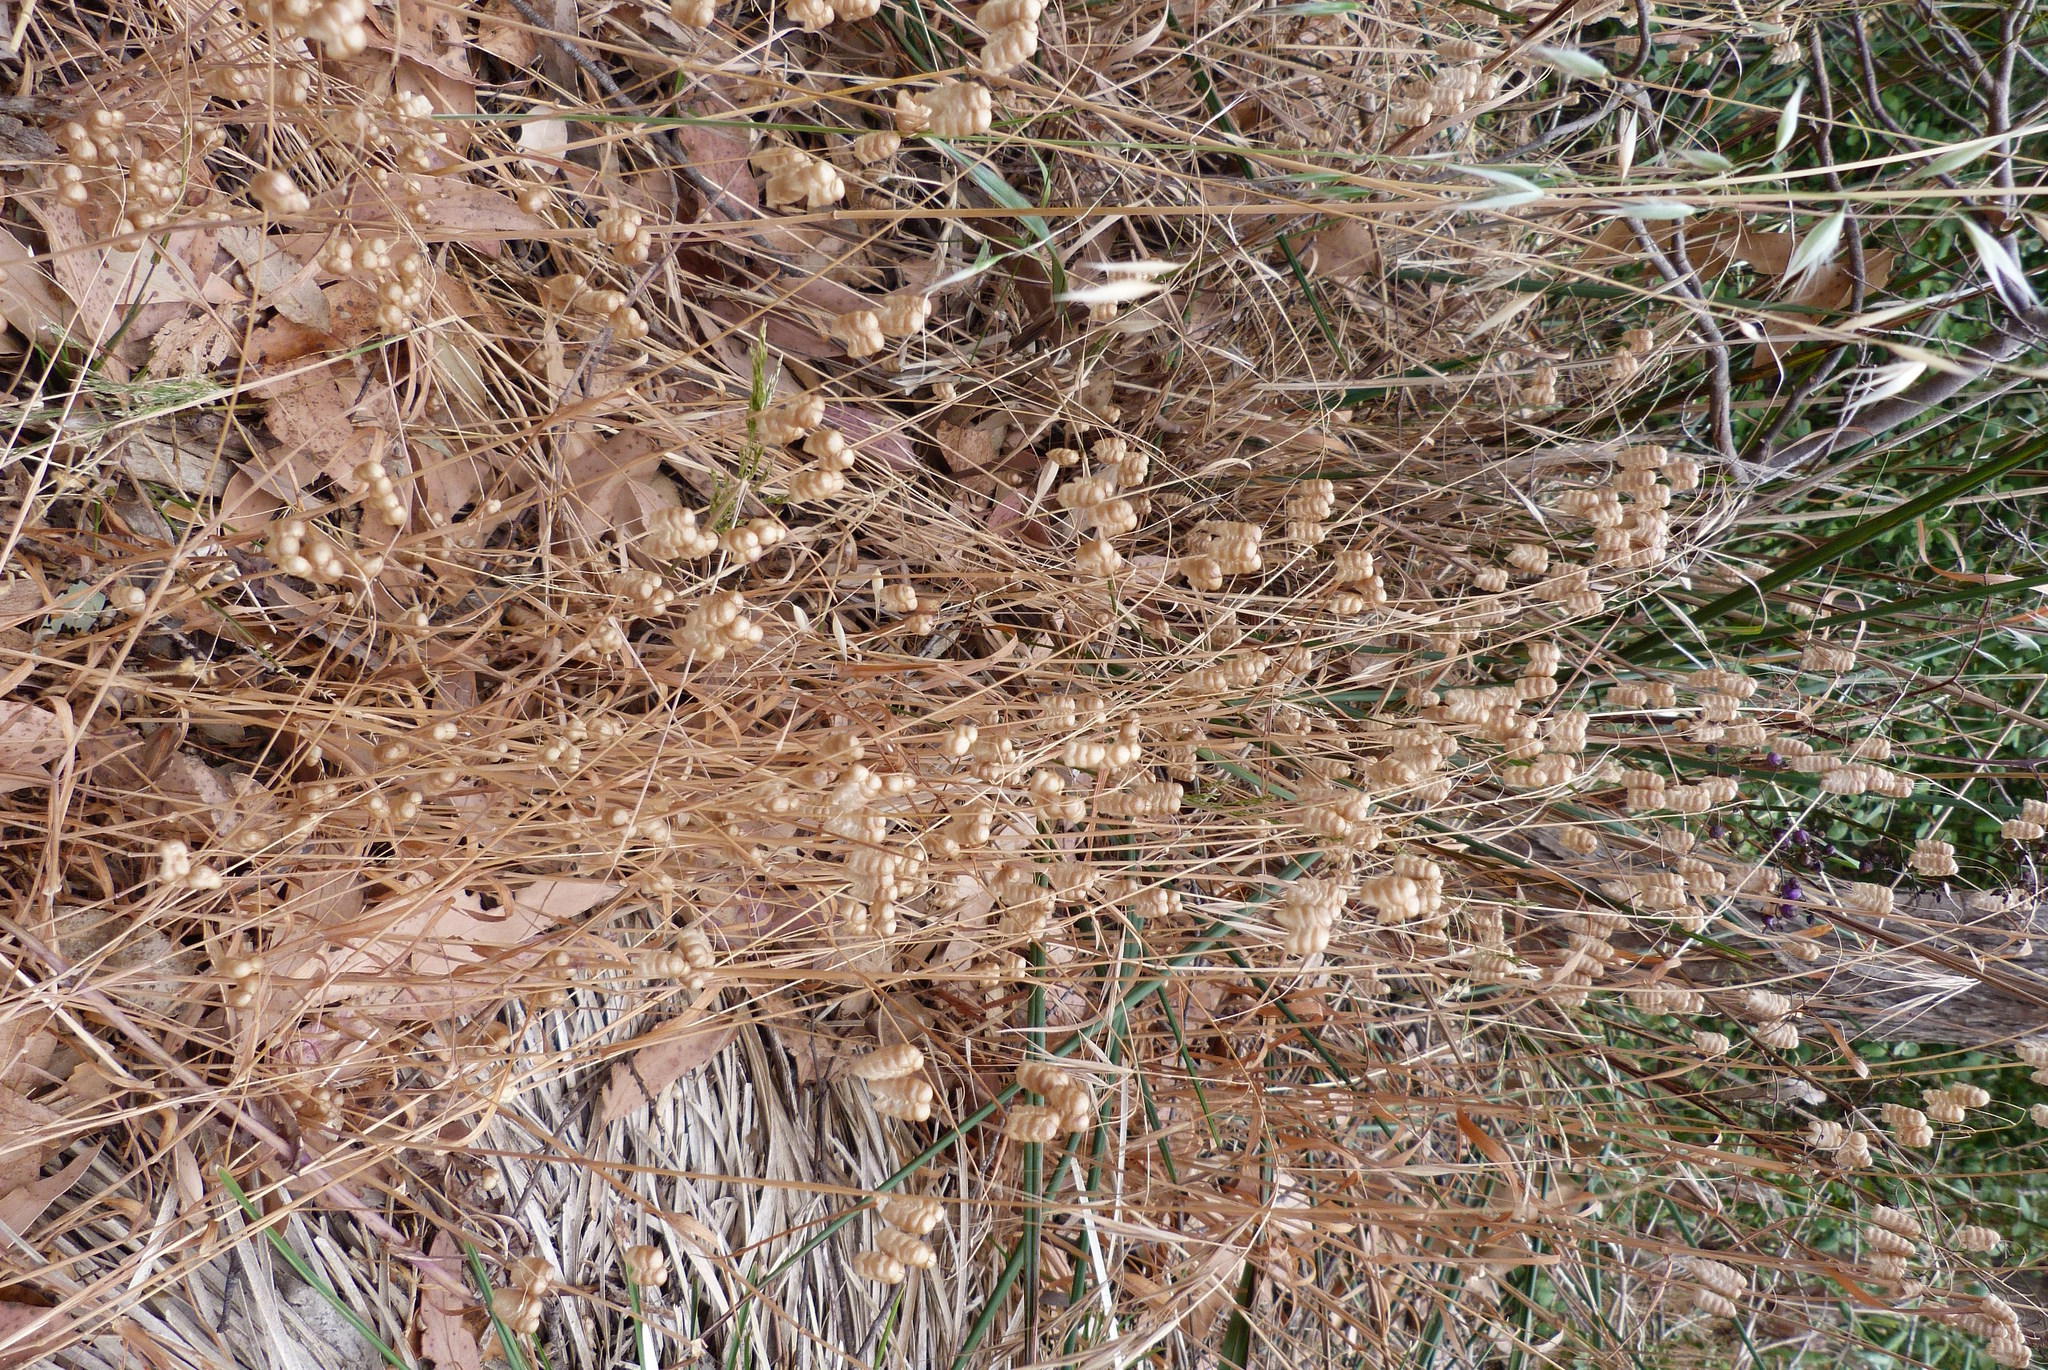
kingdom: Plantae
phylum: Tracheophyta
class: Liliopsida
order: Poales
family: Poaceae
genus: Briza
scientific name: Briza maxima
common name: Big quakinggrass
